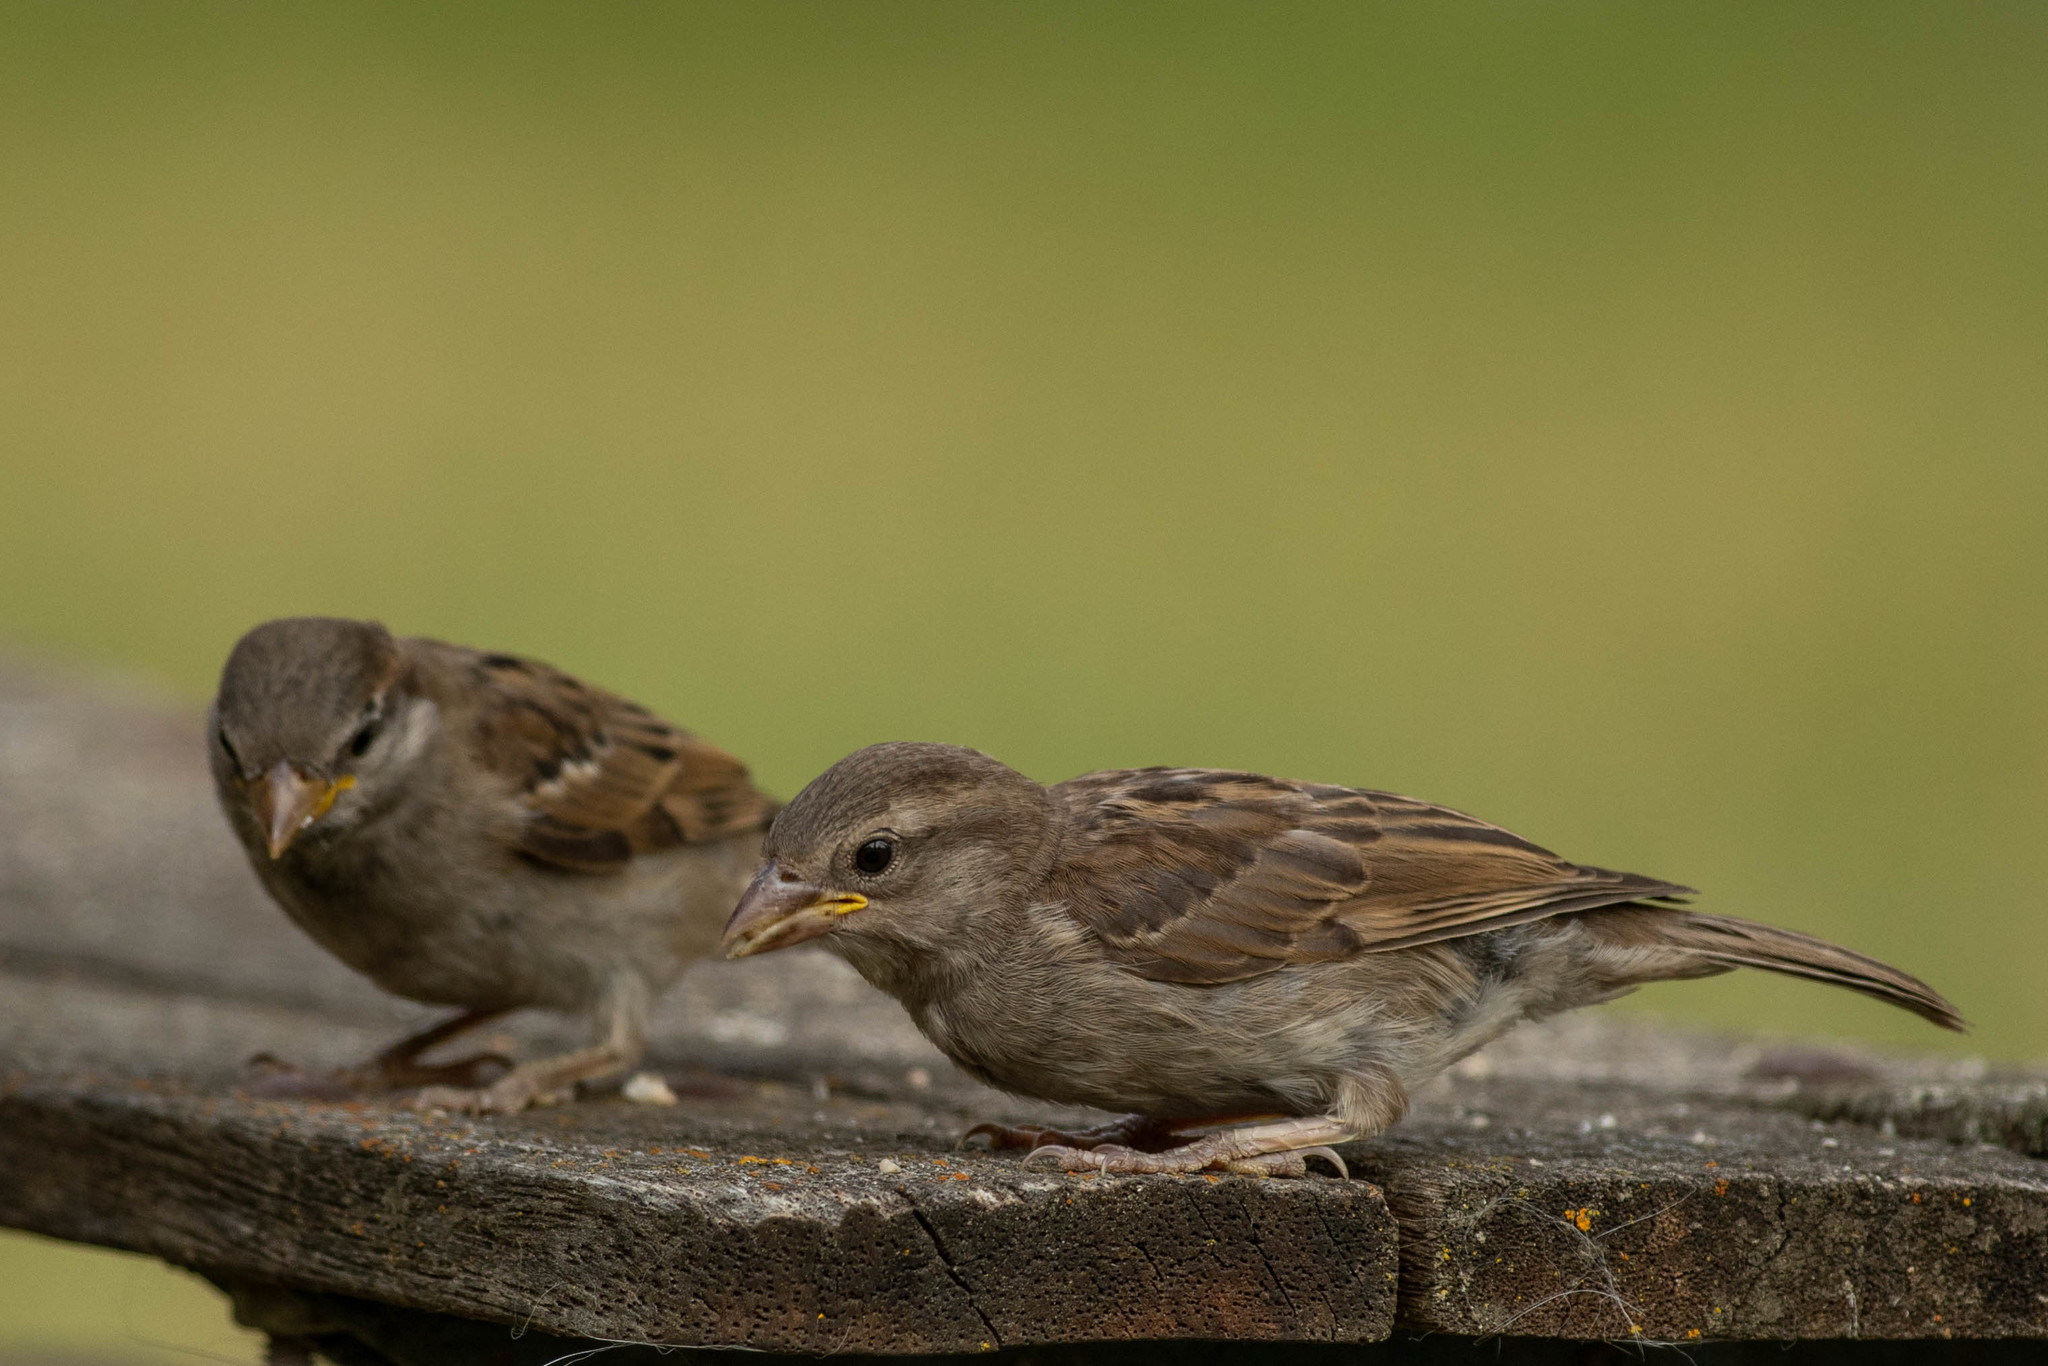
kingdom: Animalia
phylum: Chordata
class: Aves
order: Passeriformes
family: Passeridae
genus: Passer
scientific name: Passer domesticus
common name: House sparrow
